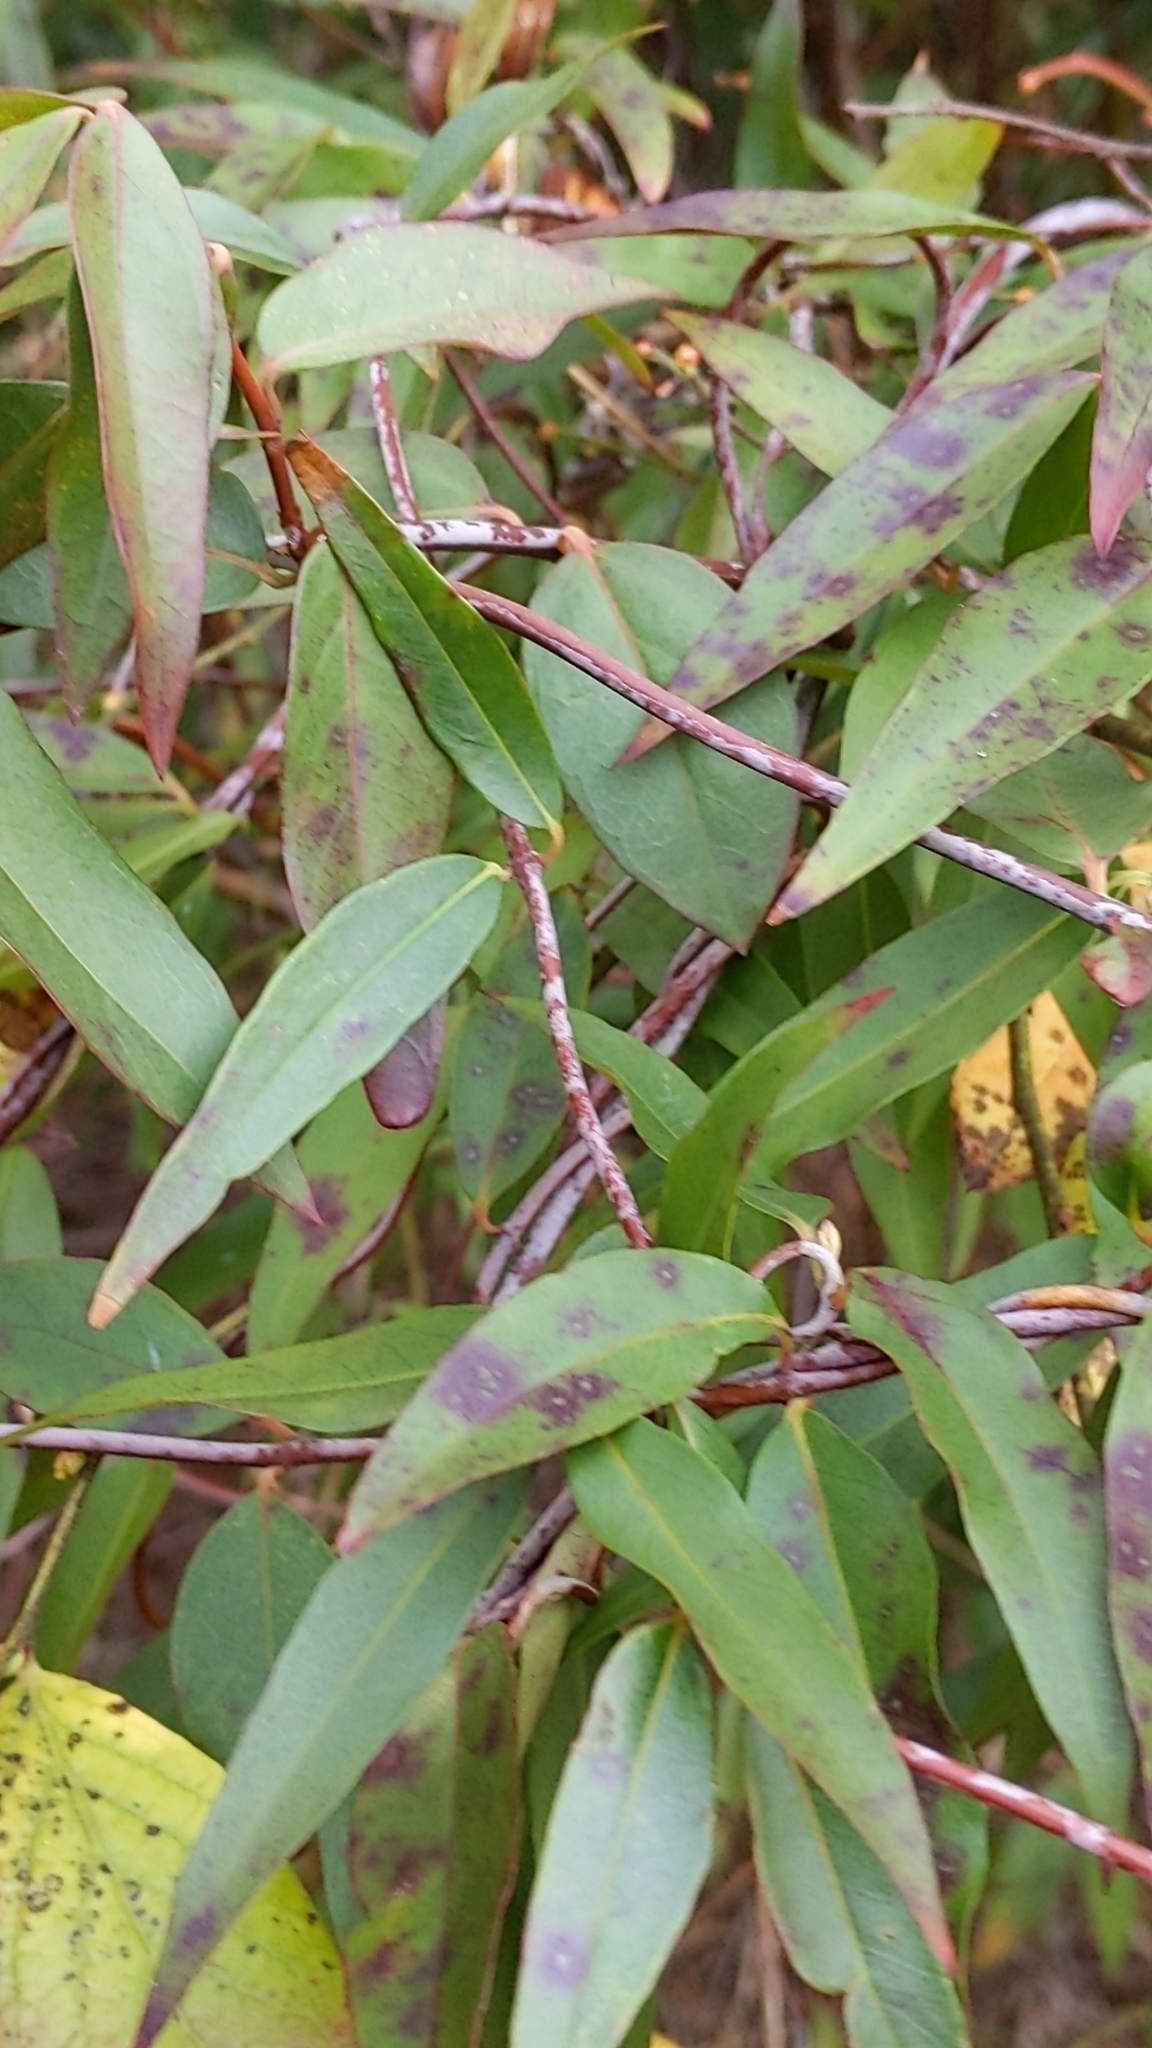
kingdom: Plantae
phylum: Tracheophyta
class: Magnoliopsida
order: Gentianales
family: Gelsemiaceae
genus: Gelsemium
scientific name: Gelsemium sempervirens
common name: Carolina-jasmine
